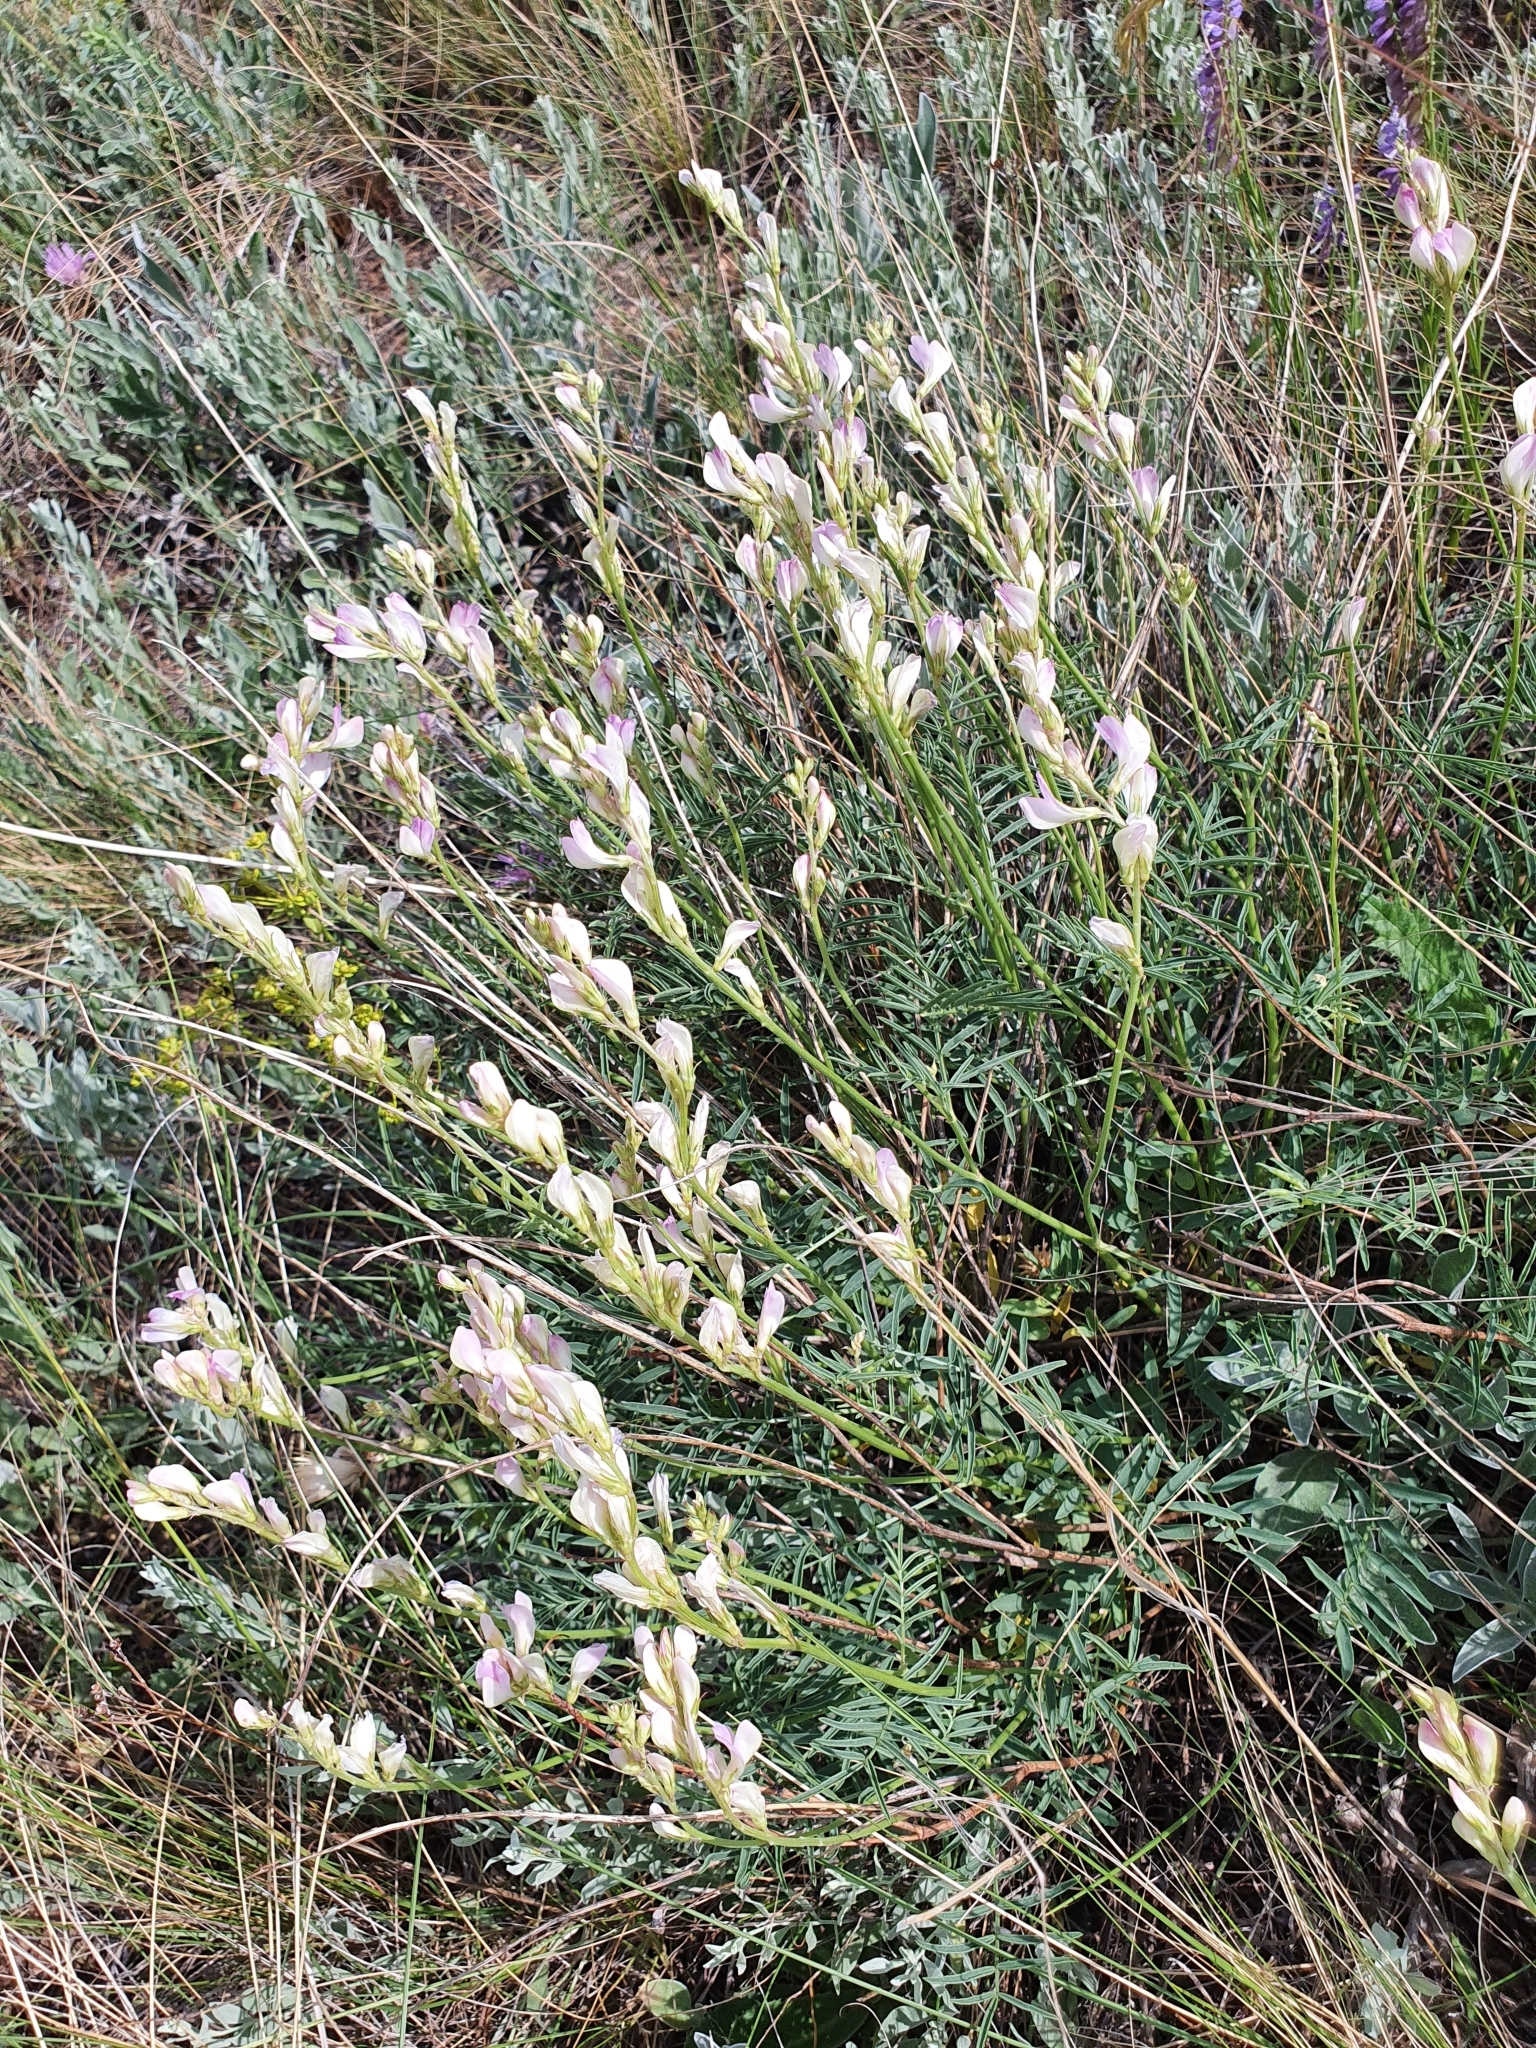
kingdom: Plantae
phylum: Tracheophyta
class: Magnoliopsida
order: Fabales
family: Fabaceae
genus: Hedysarum
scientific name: Hedysarum razoumovianum
